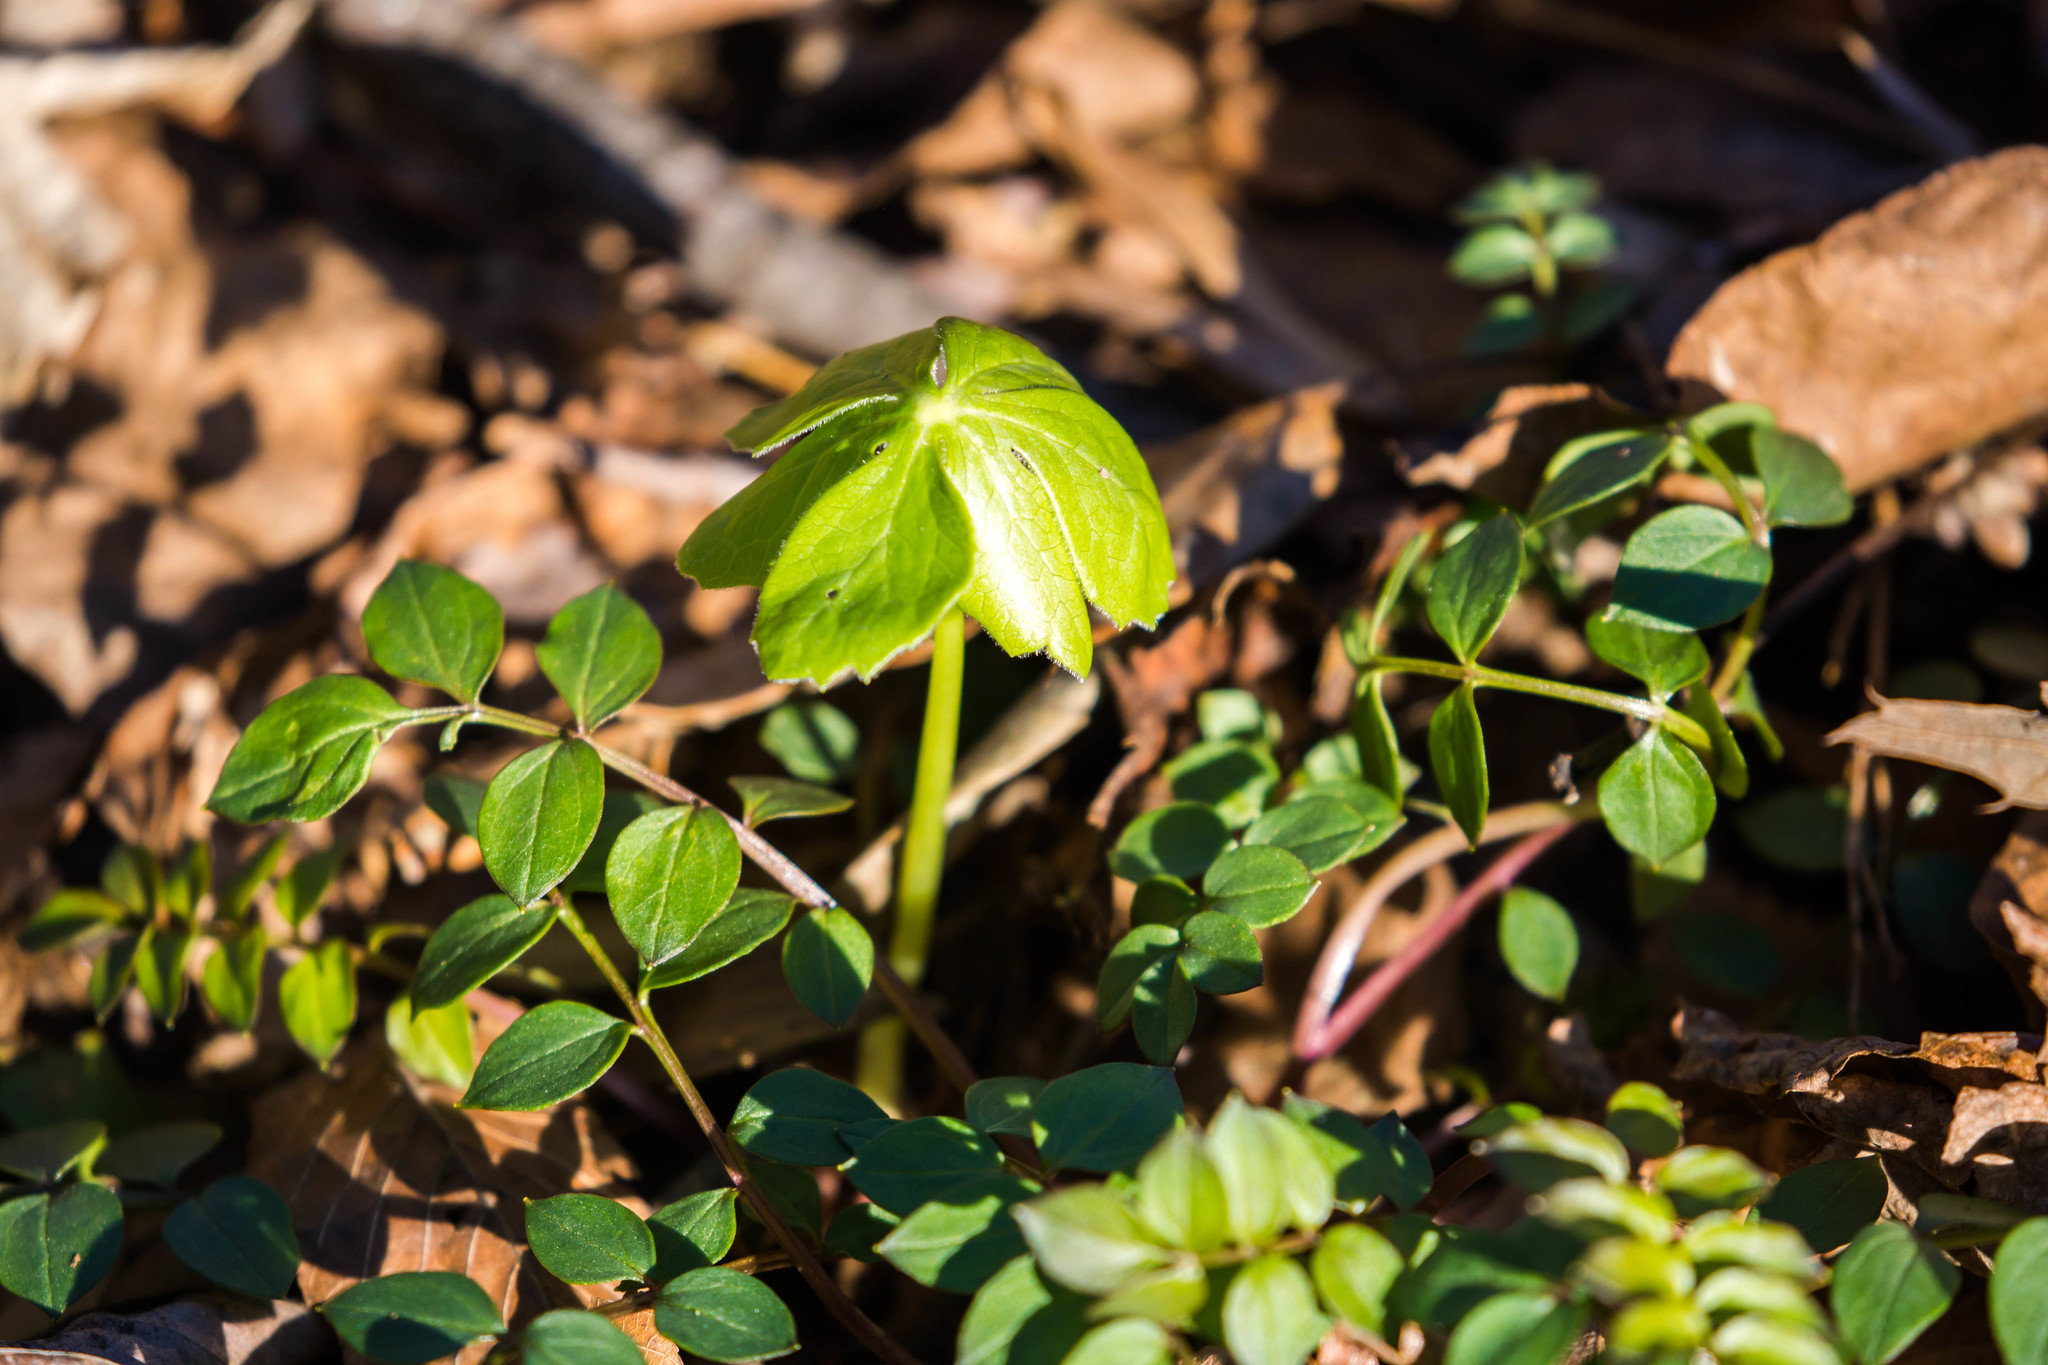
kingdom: Plantae
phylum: Tracheophyta
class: Magnoliopsida
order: Ranunculales
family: Berberidaceae
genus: Podophyllum
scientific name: Podophyllum peltatum
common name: Wild mandrake
